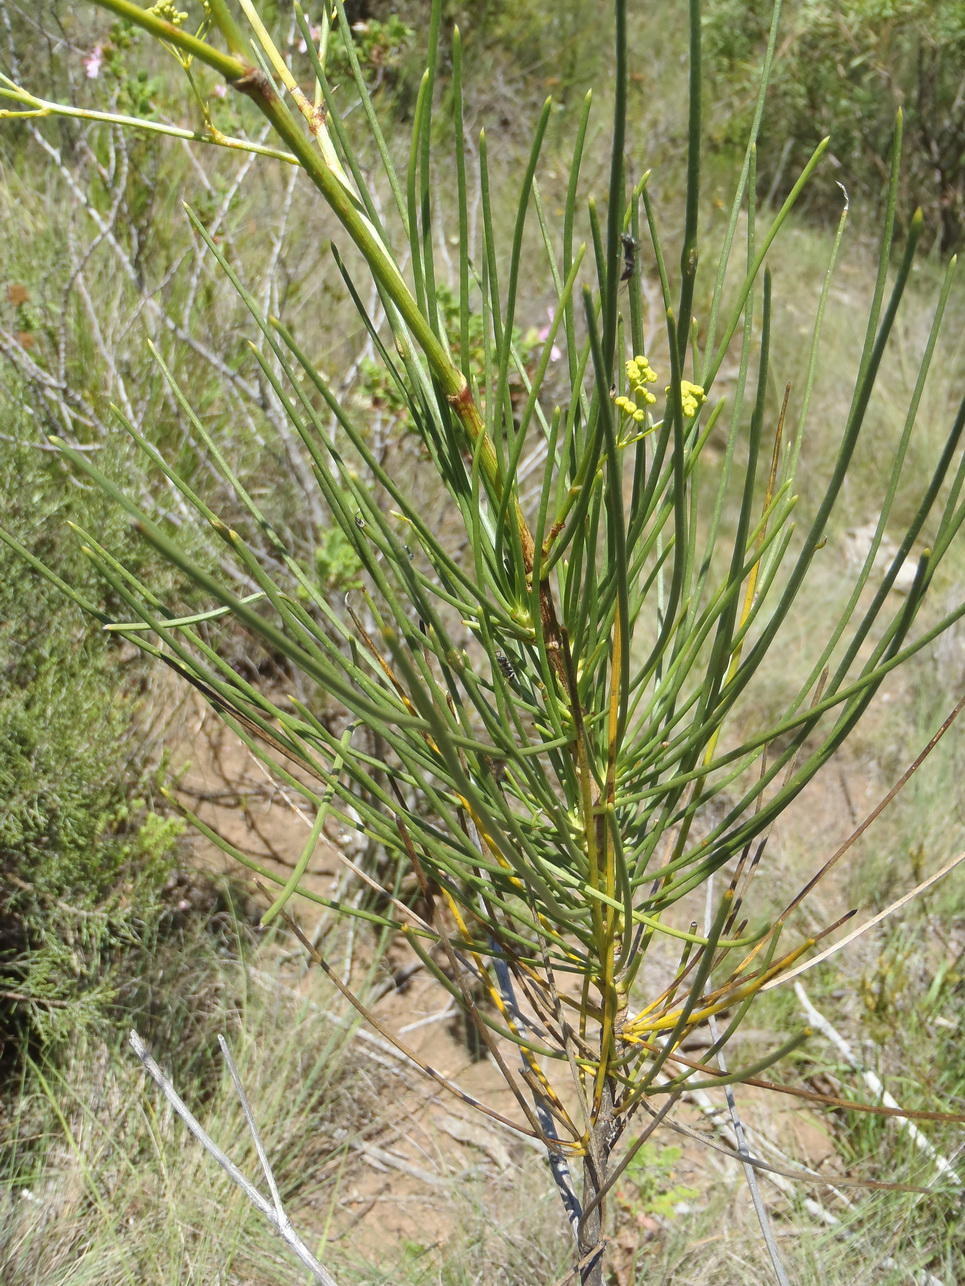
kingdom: Plantae
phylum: Tracheophyta
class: Magnoliopsida
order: Apiales
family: Apiaceae
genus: Anginon
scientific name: Anginon difforme
